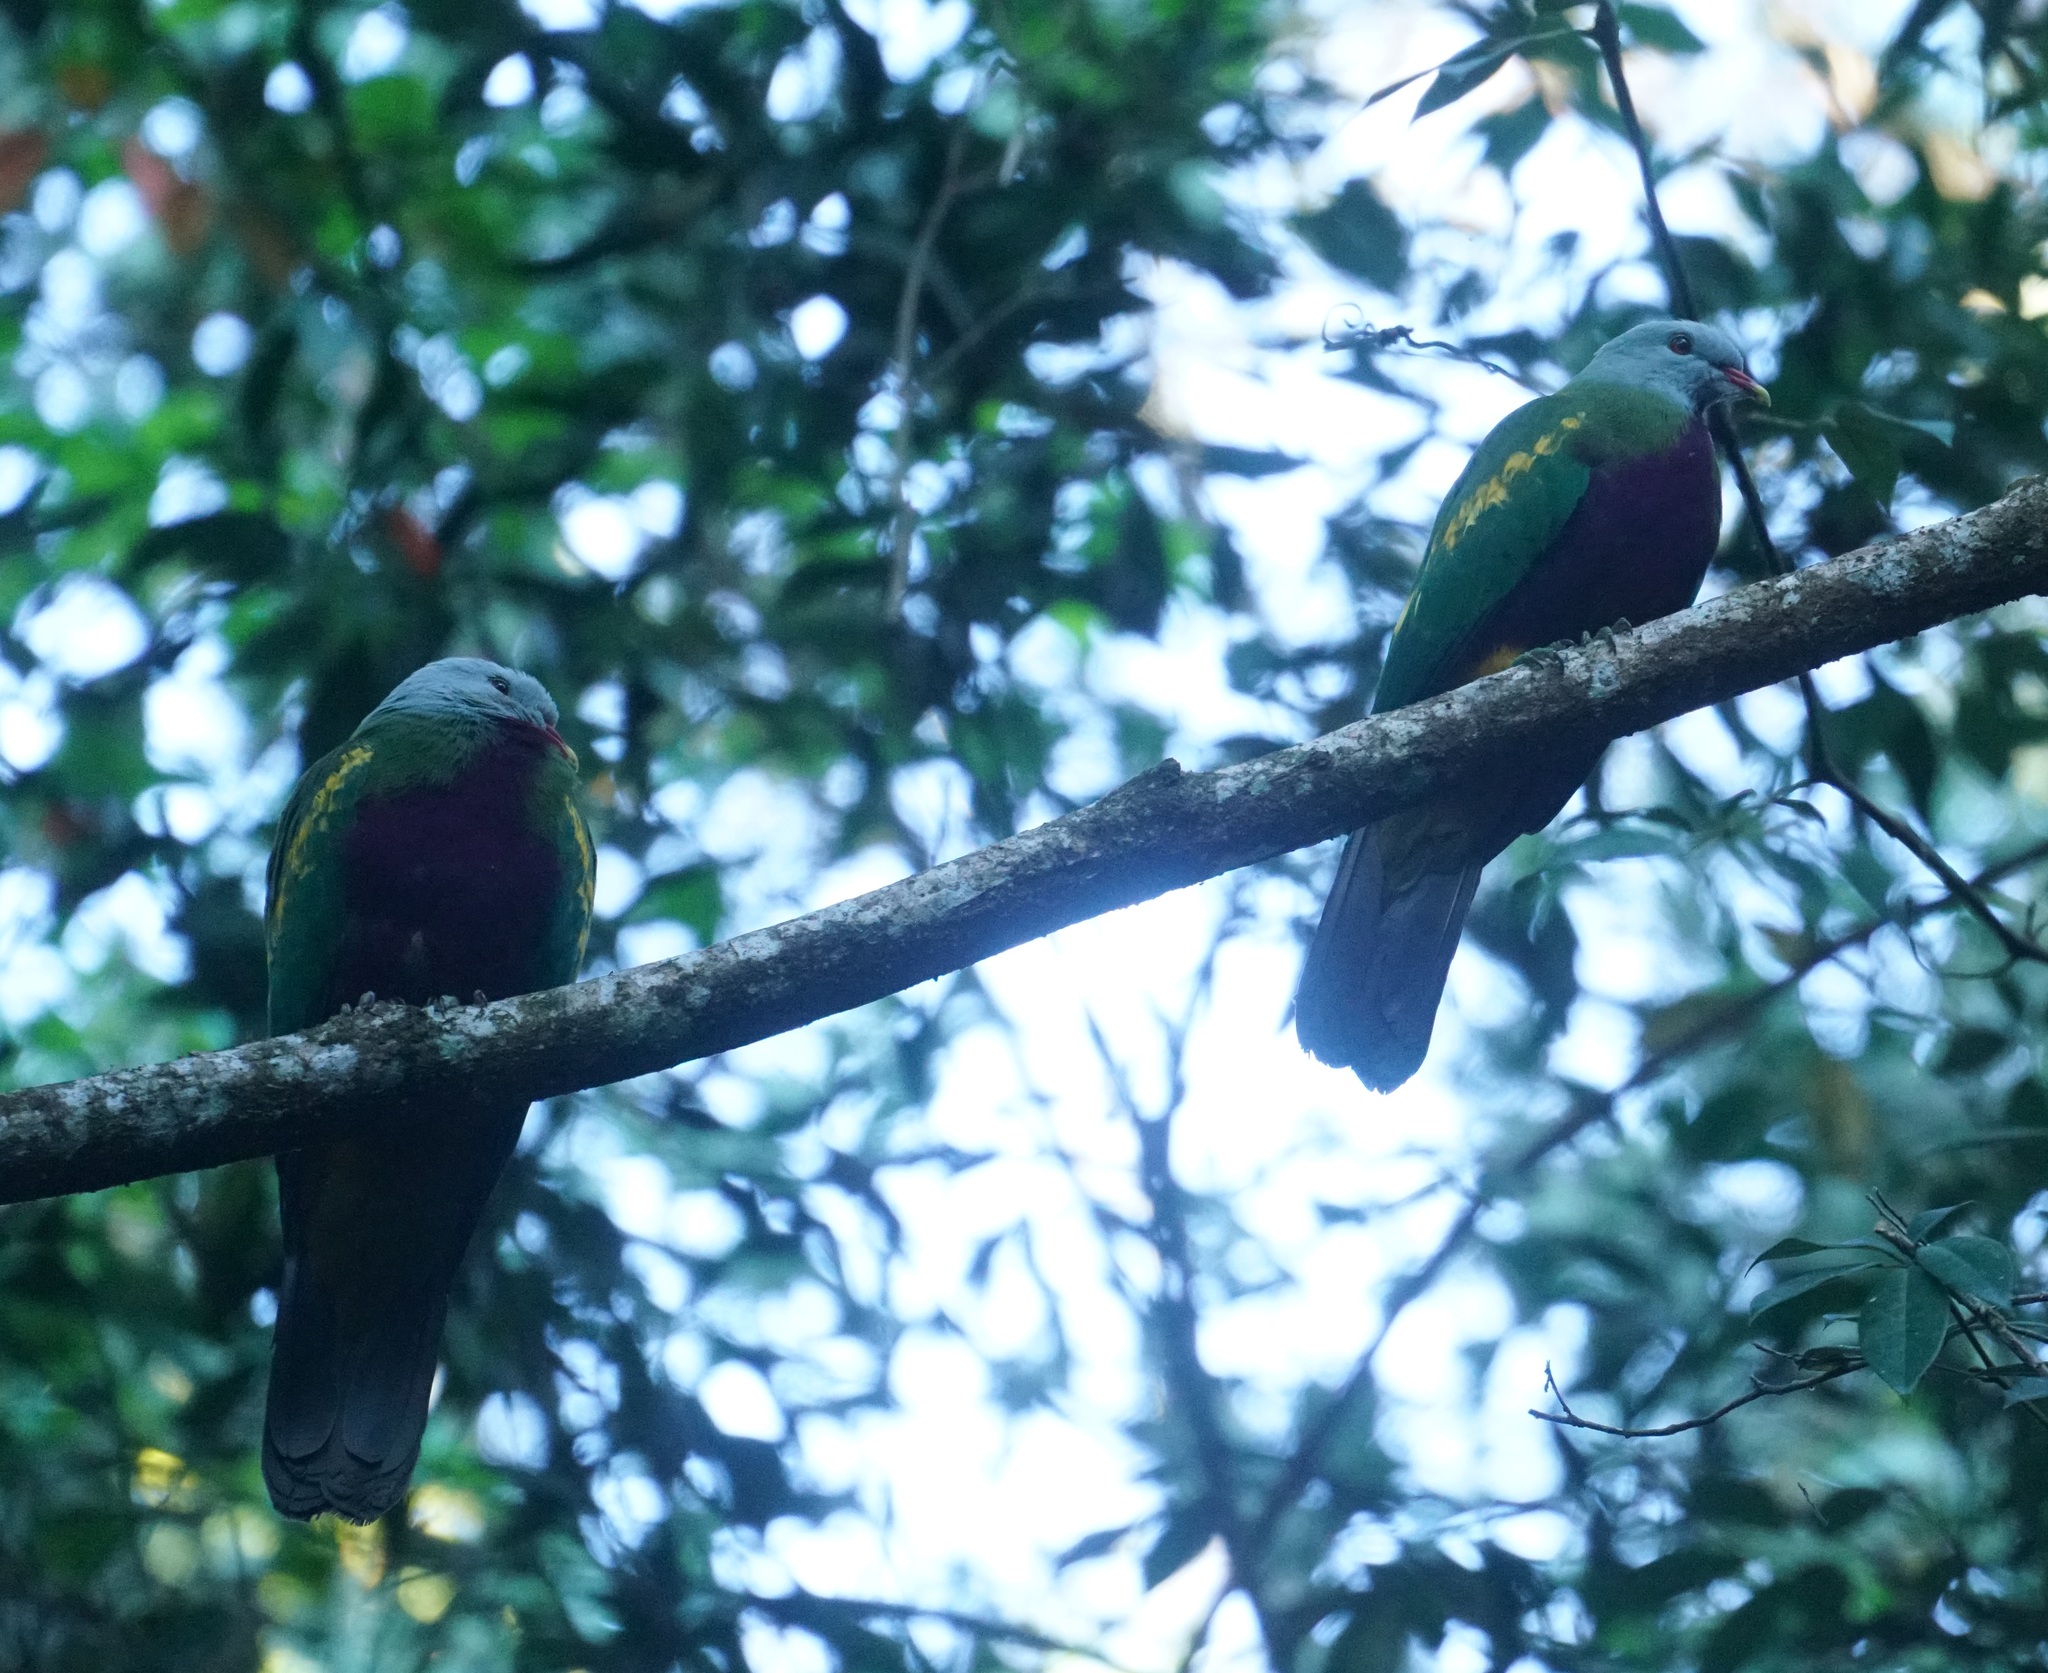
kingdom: Animalia
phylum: Chordata
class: Aves
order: Columbiformes
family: Columbidae
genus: Ptilinopus
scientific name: Ptilinopus magnificus
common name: Wompoo fruit dove
